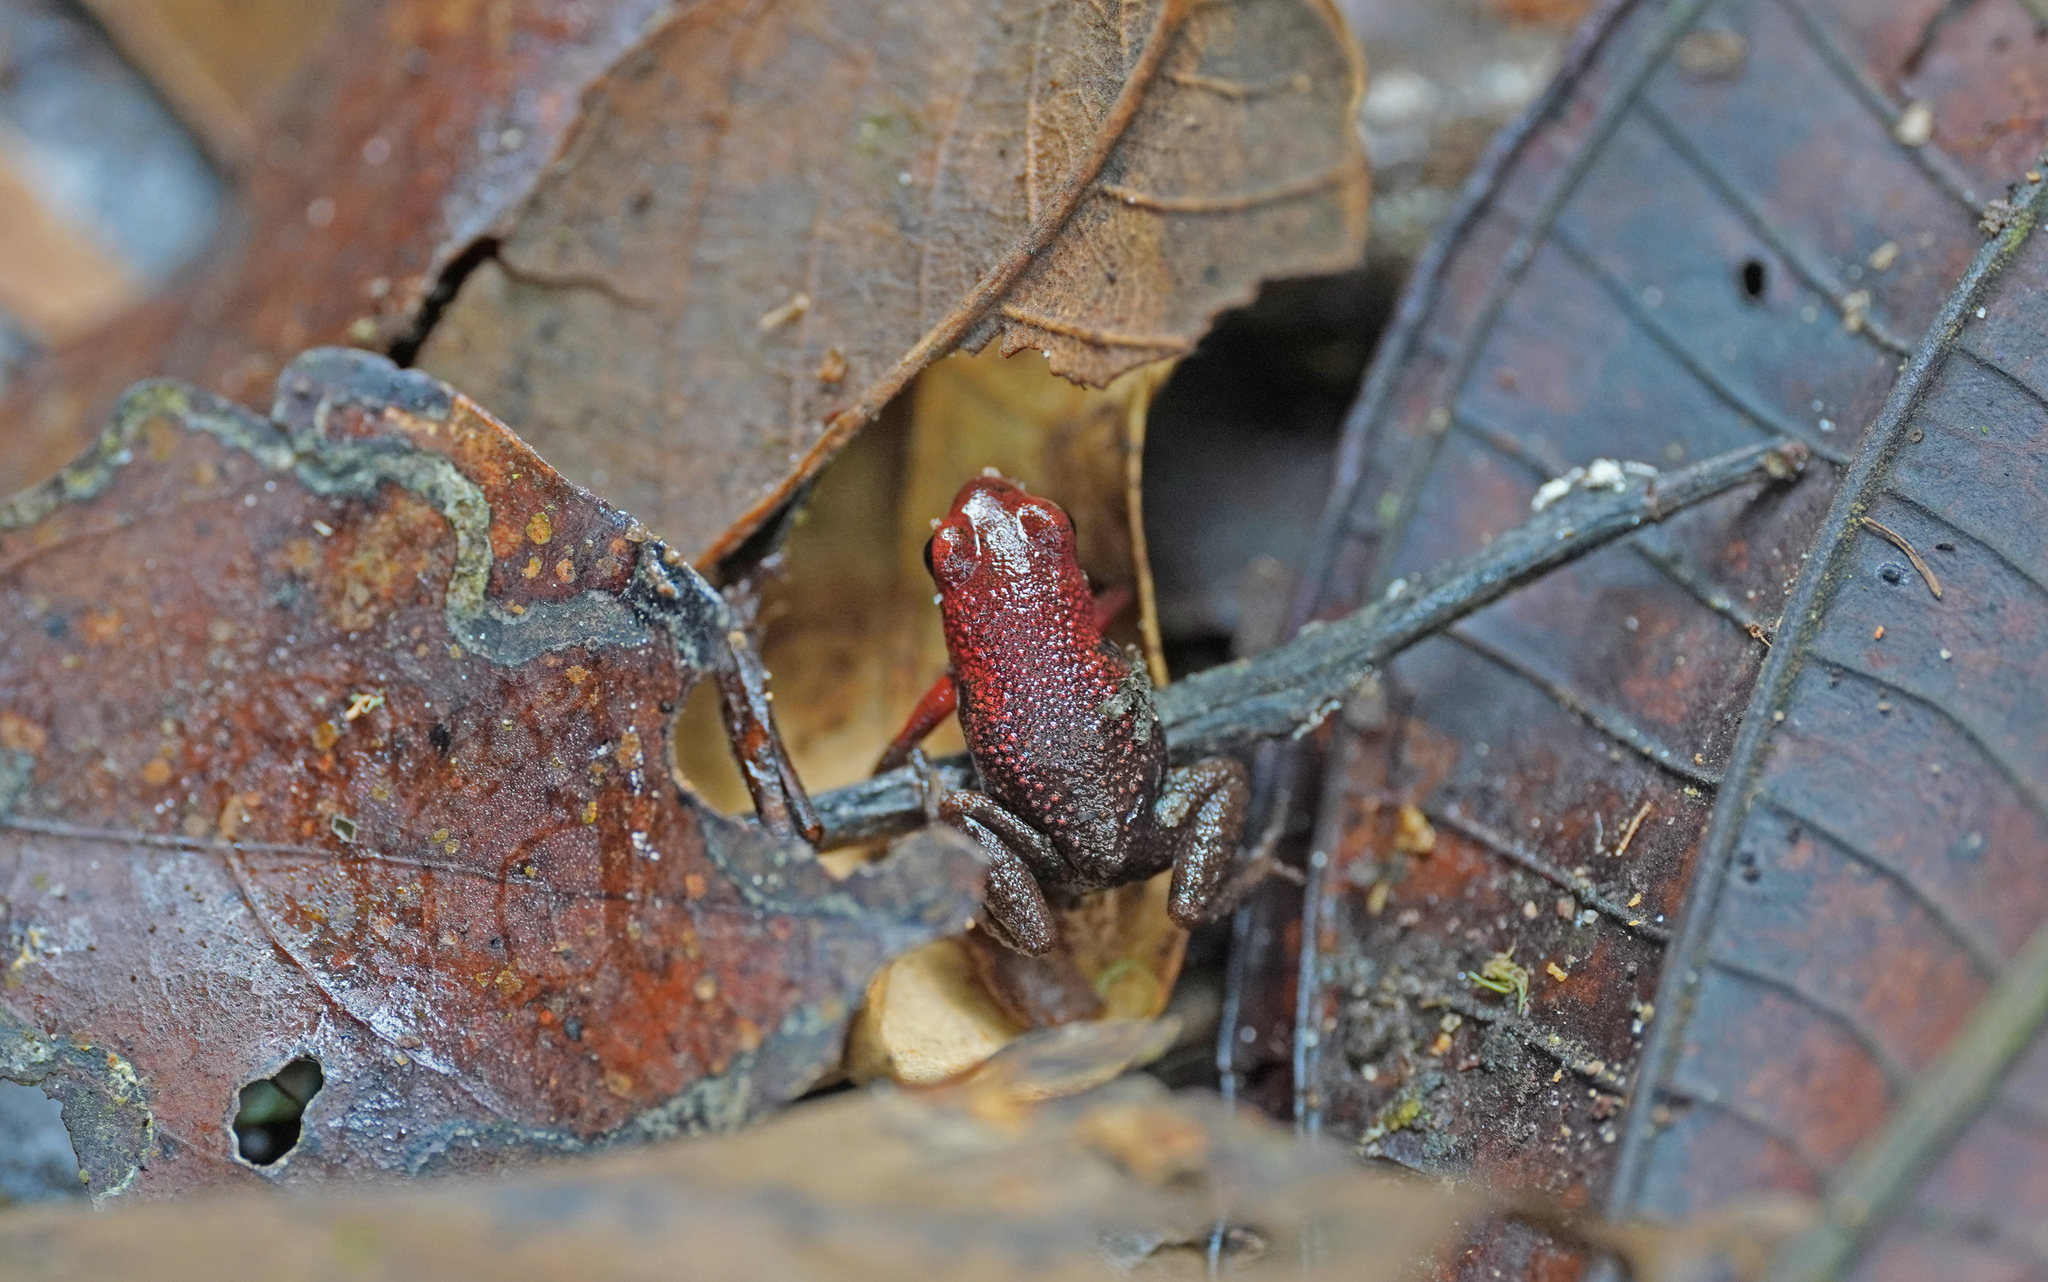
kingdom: Animalia
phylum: Chordata
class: Amphibia
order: Anura
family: Dendrobatidae
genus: Andinobates
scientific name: Andinobates opisthomelas
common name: Andean poison frog
